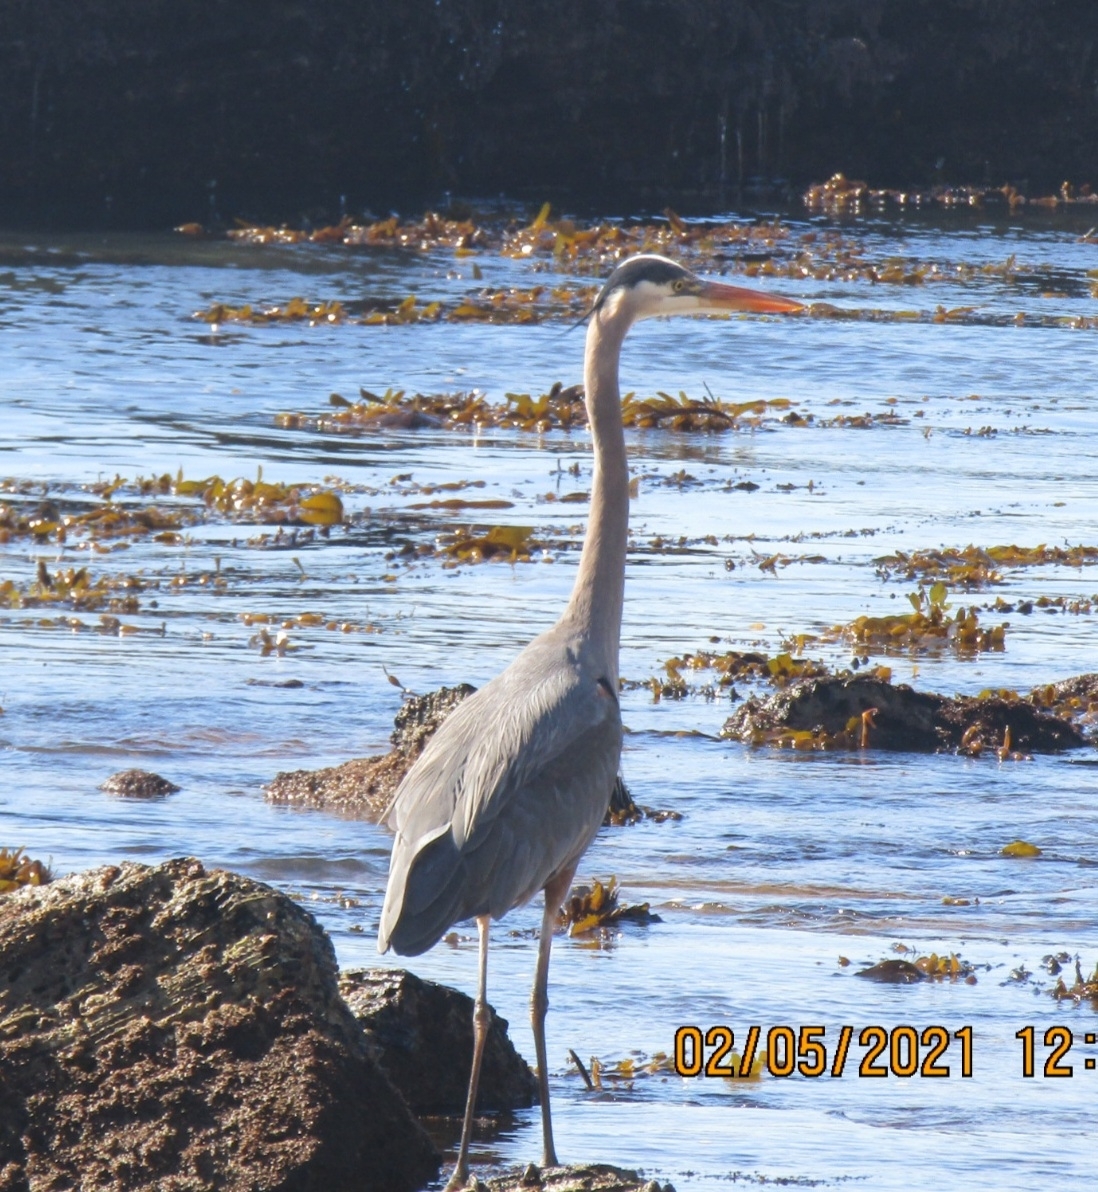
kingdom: Animalia
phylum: Chordata
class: Aves
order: Pelecaniformes
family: Ardeidae
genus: Ardea
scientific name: Ardea herodias
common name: Great blue heron
